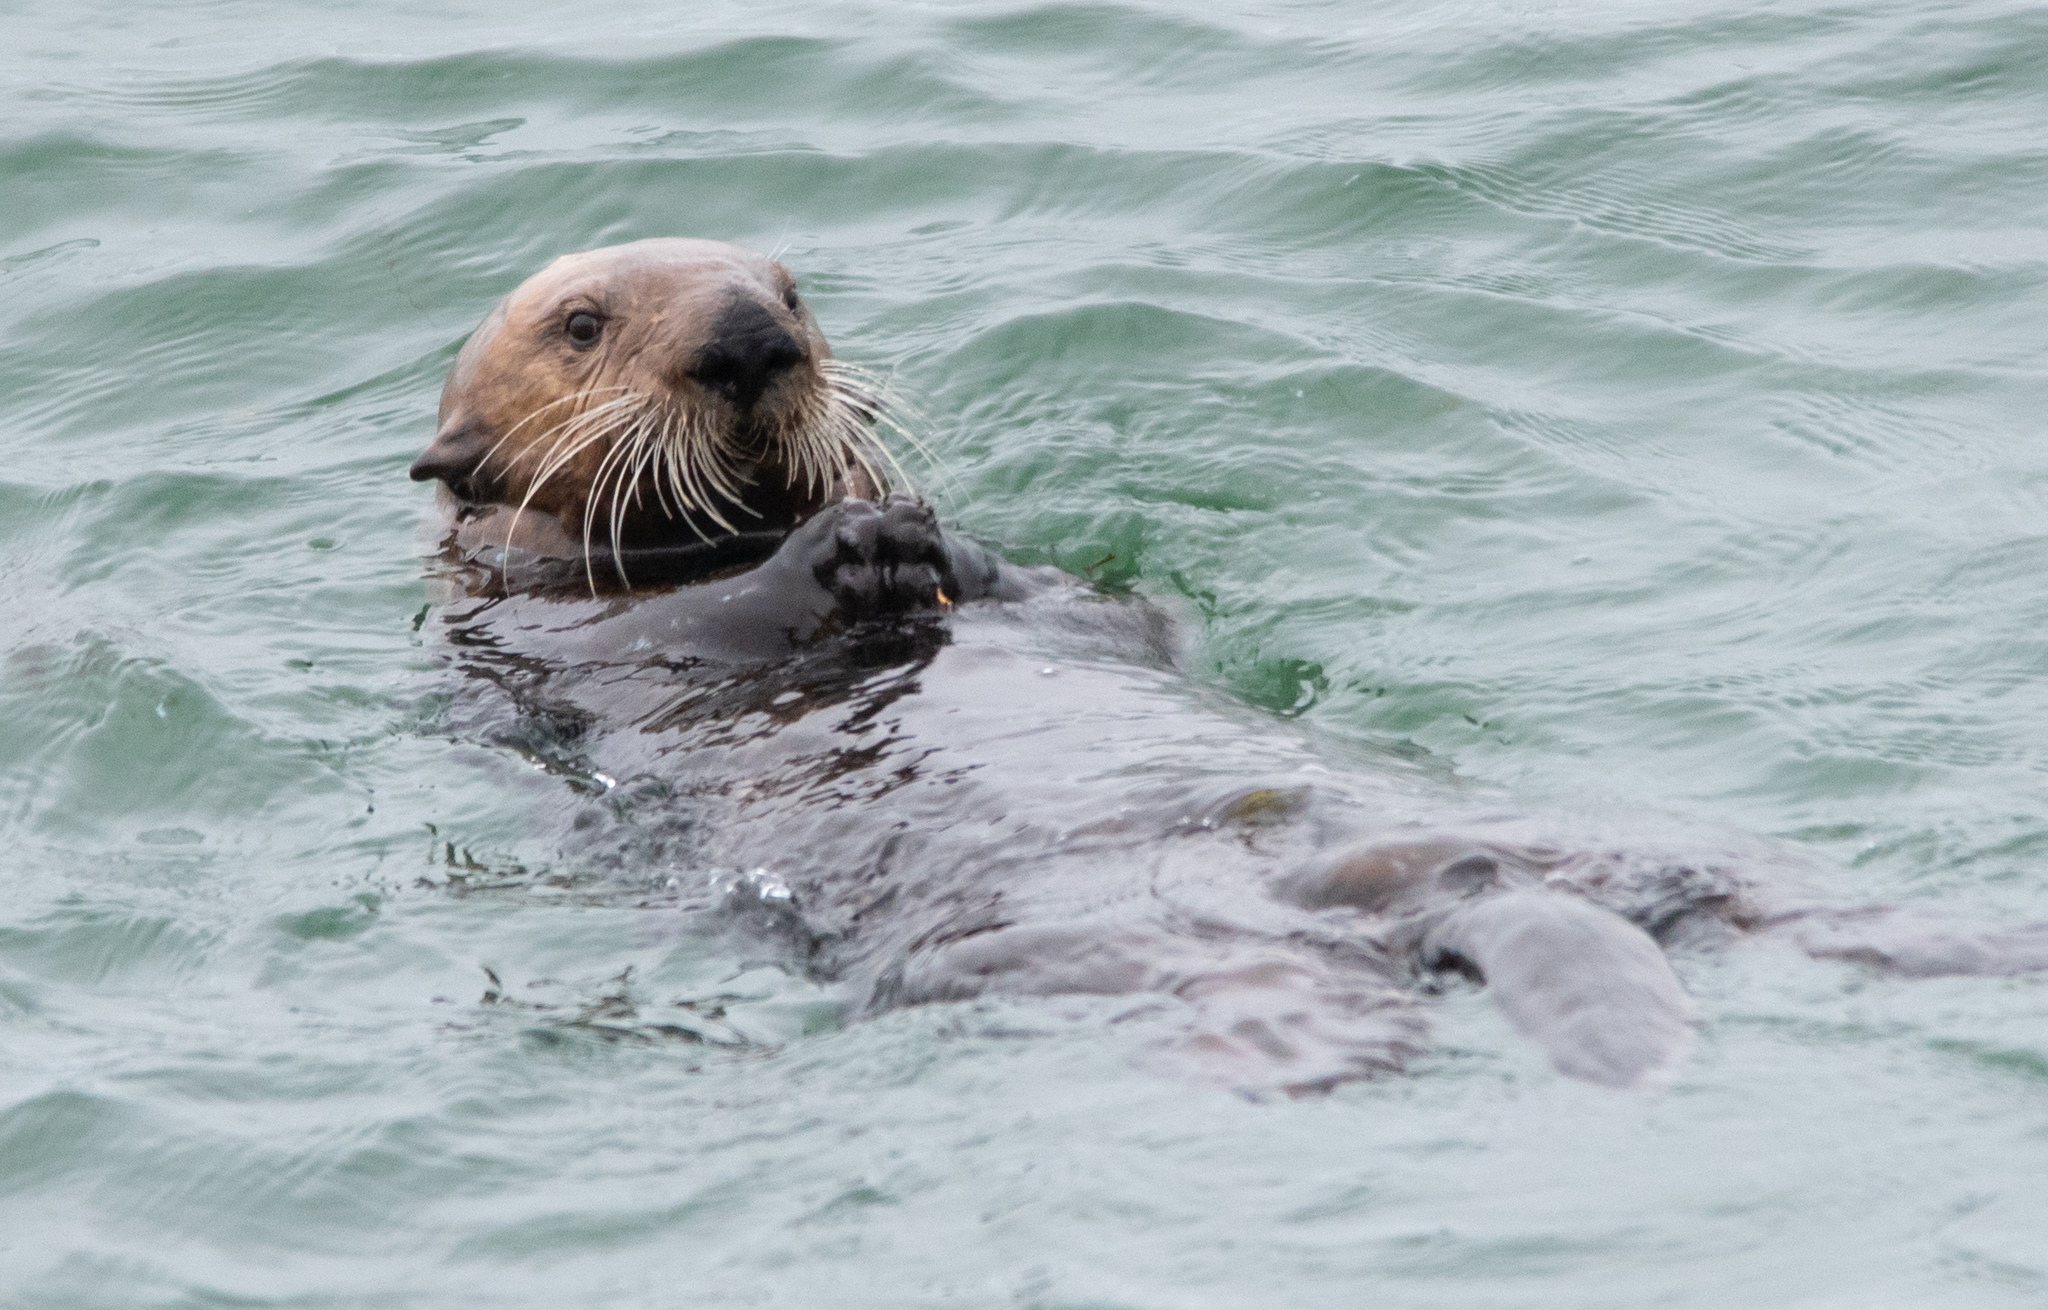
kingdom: Animalia
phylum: Chordata
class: Mammalia
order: Carnivora
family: Mustelidae
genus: Enhydra
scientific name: Enhydra lutris
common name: Sea otter
